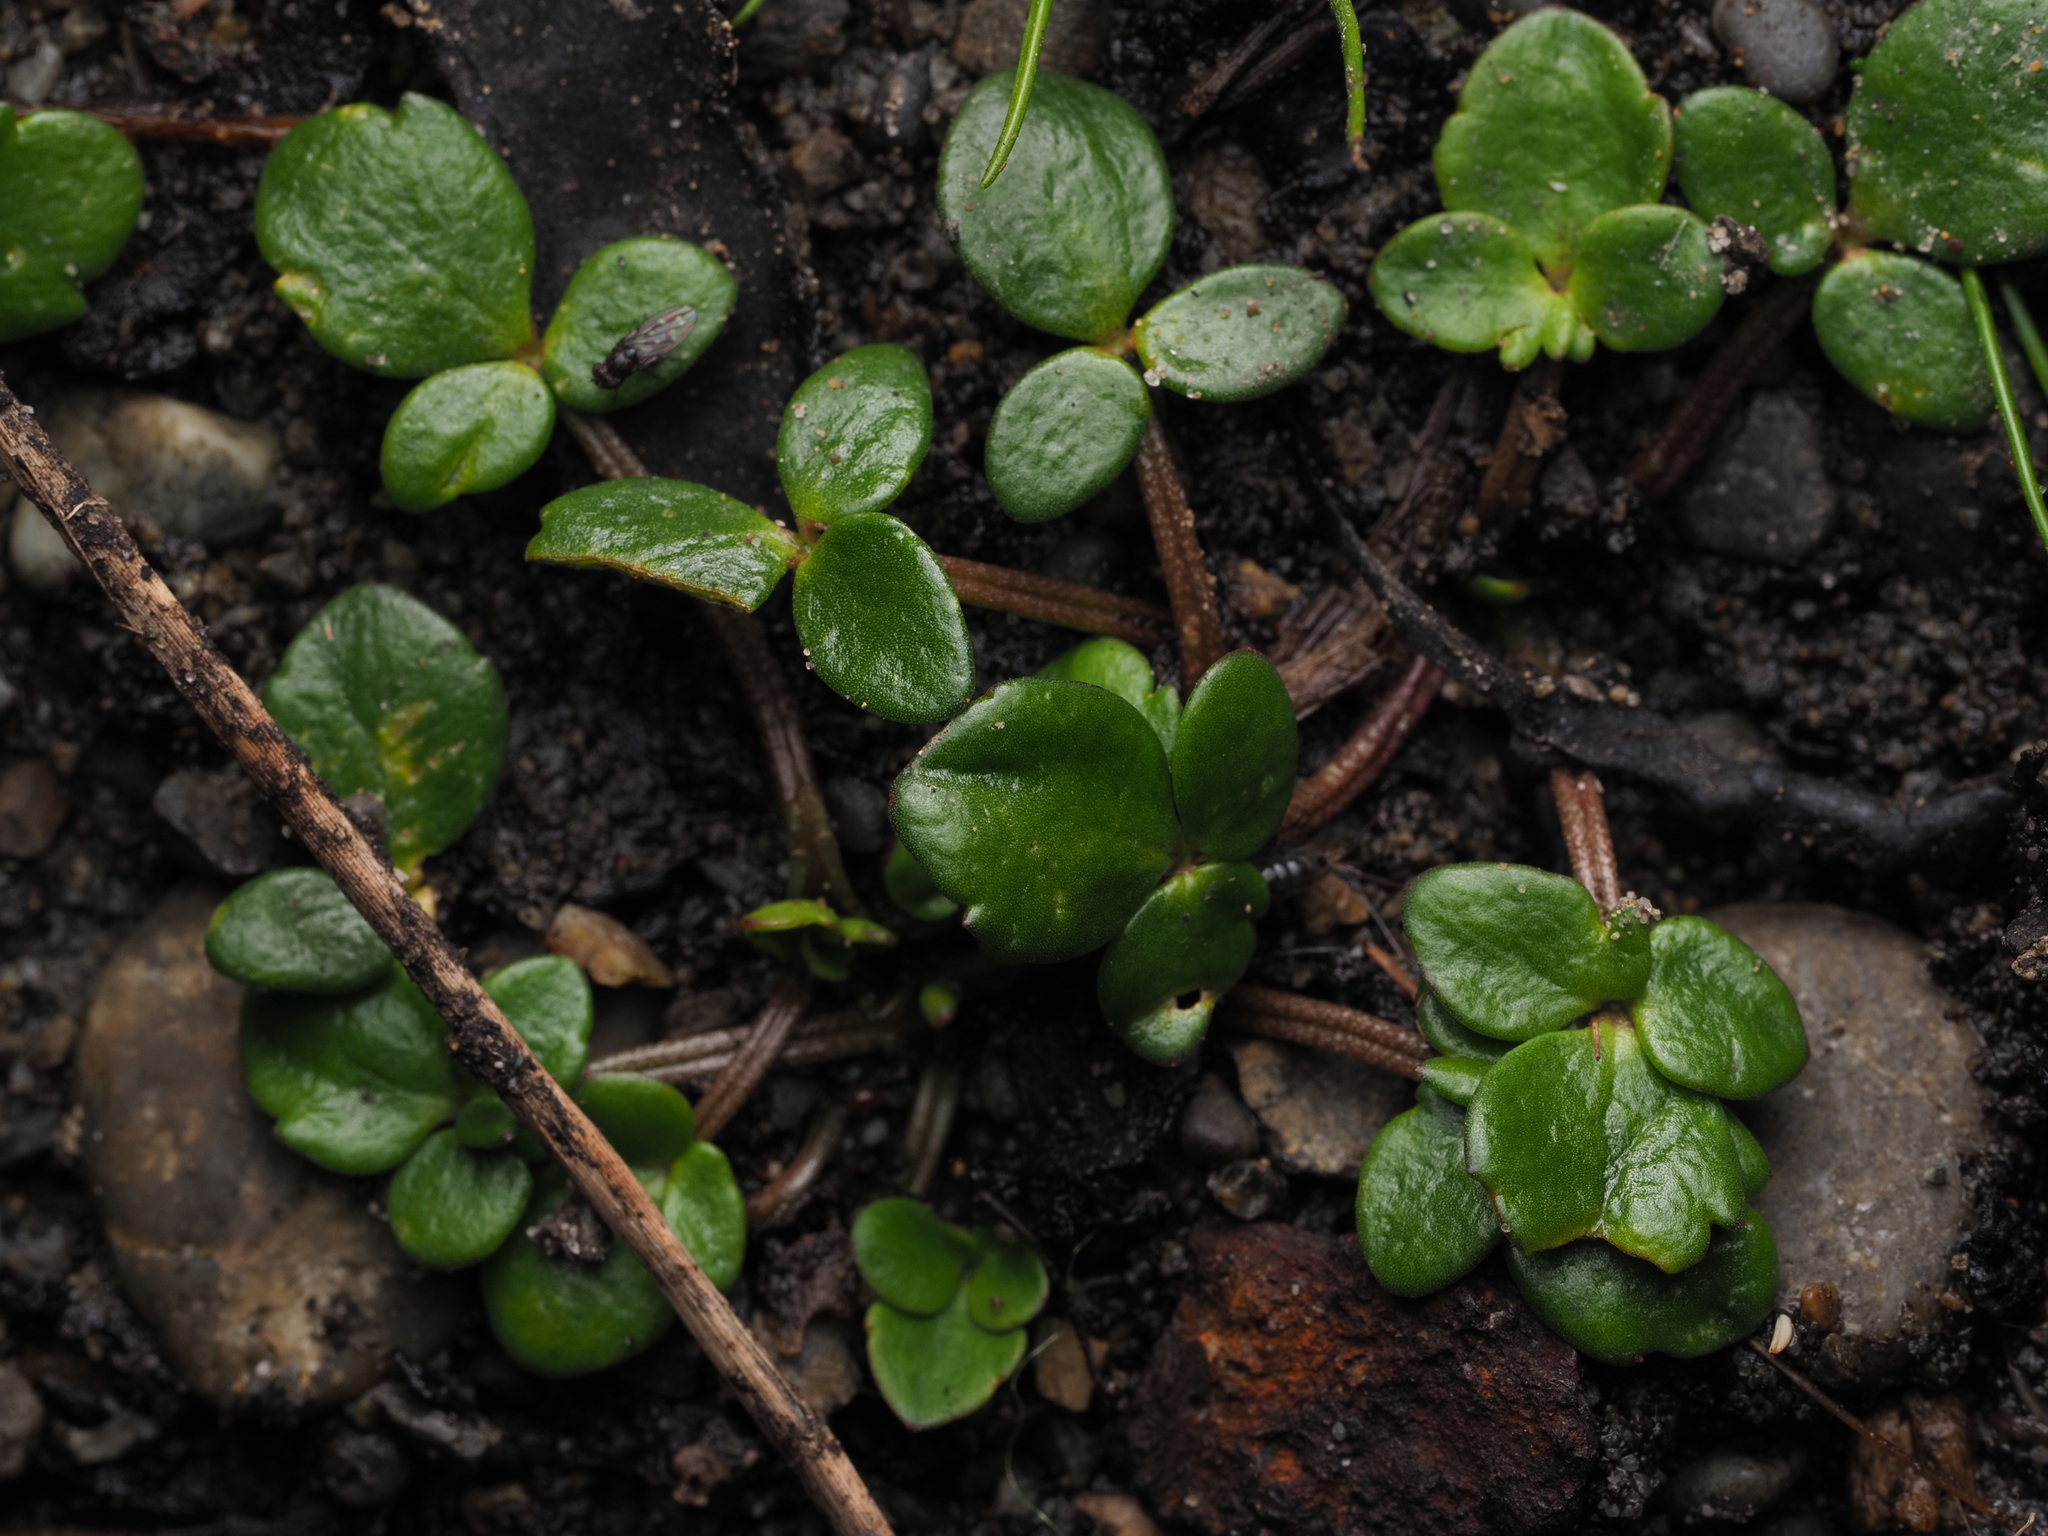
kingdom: Plantae
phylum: Tracheophyta
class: Magnoliopsida
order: Ranunculales
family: Ranunculaceae
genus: Ranunculus
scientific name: Ranunculus acaulis
